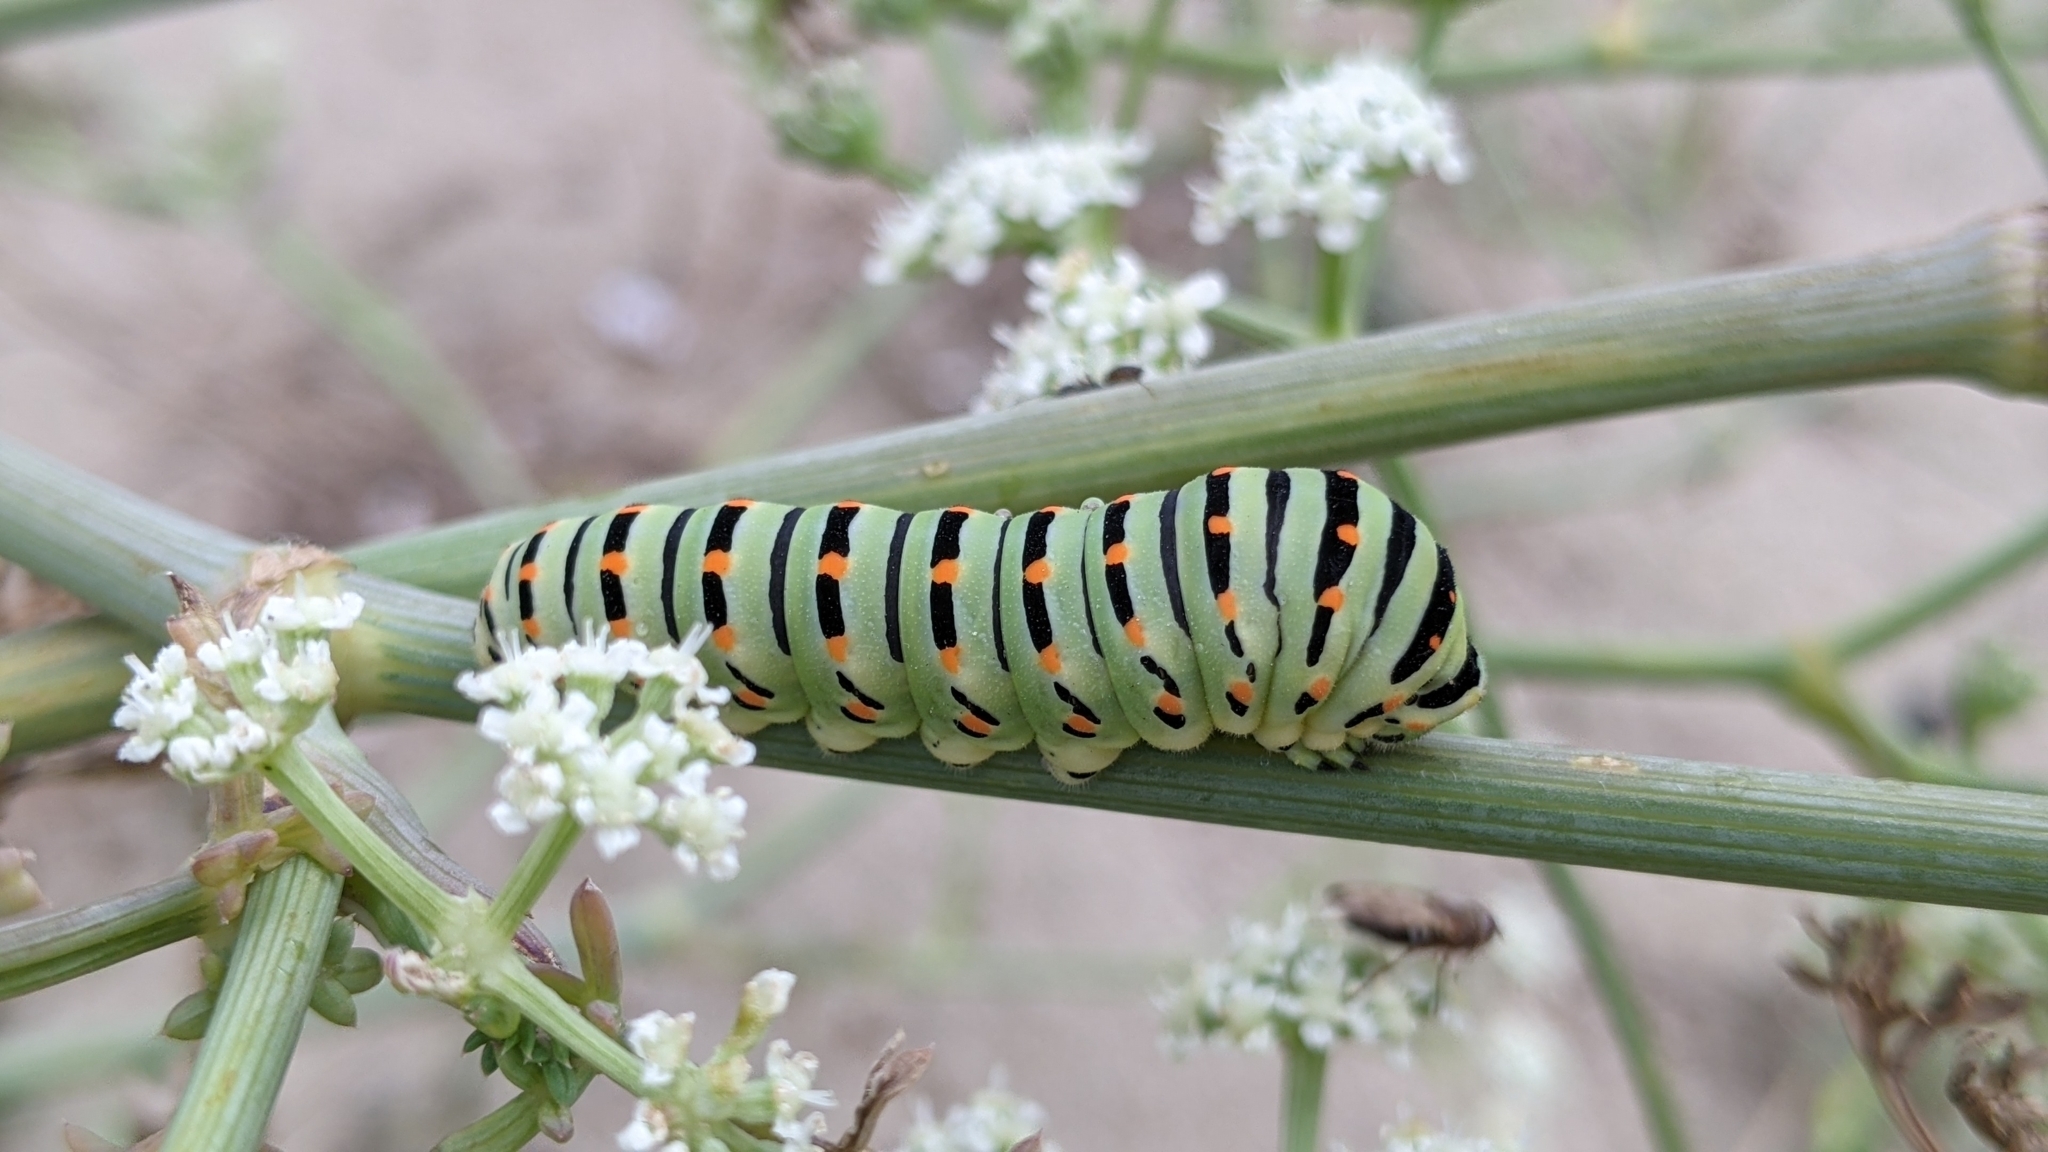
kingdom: Animalia
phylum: Arthropoda
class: Insecta
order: Lepidoptera
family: Papilionidae
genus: Papilio
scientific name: Papilio machaon
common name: Swallowtail
